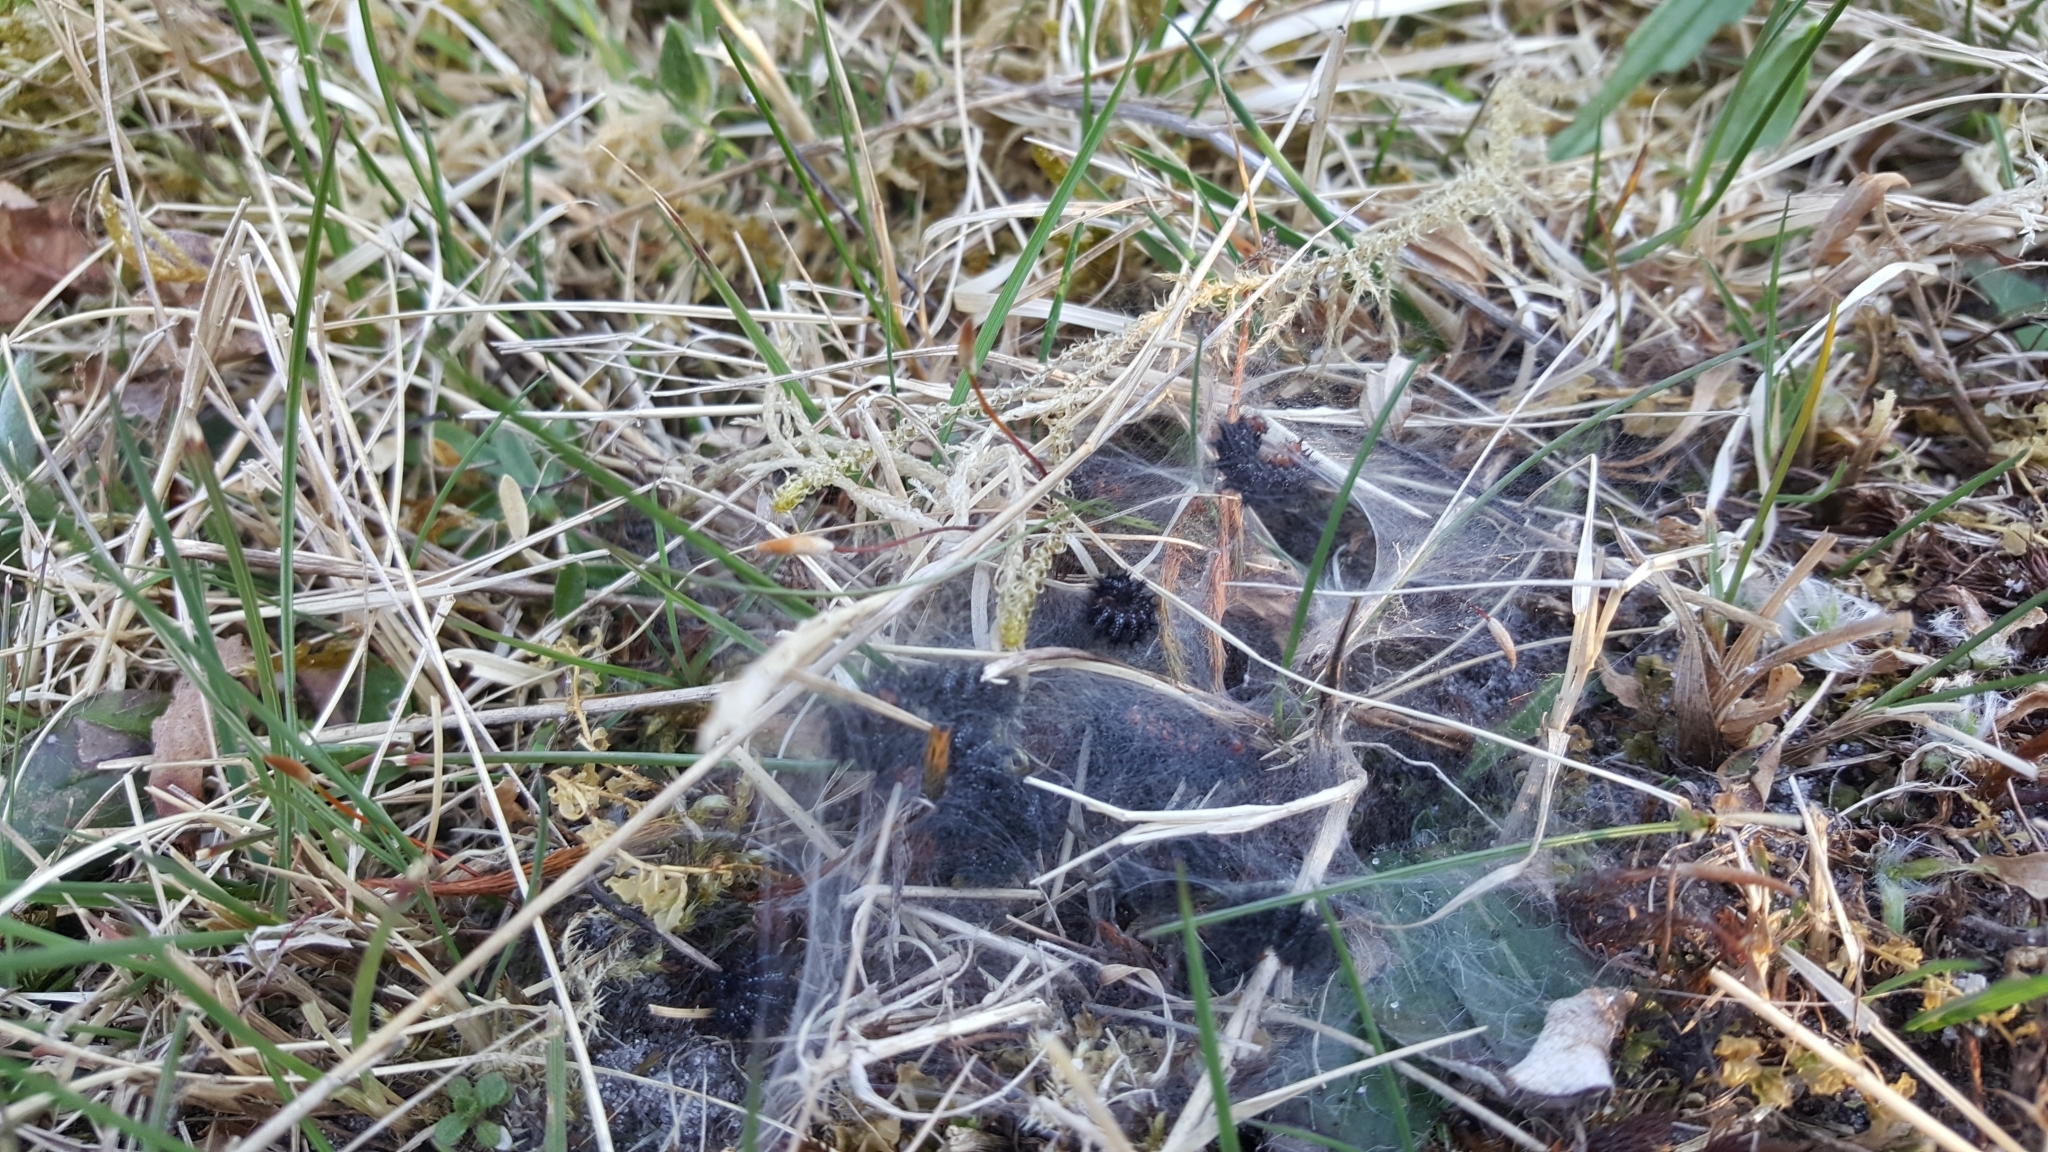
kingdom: Animalia
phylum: Arthropoda
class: Insecta
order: Lepidoptera
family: Nymphalidae
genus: Melitaea
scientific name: Melitaea cinxia
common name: Glanville fritillary
